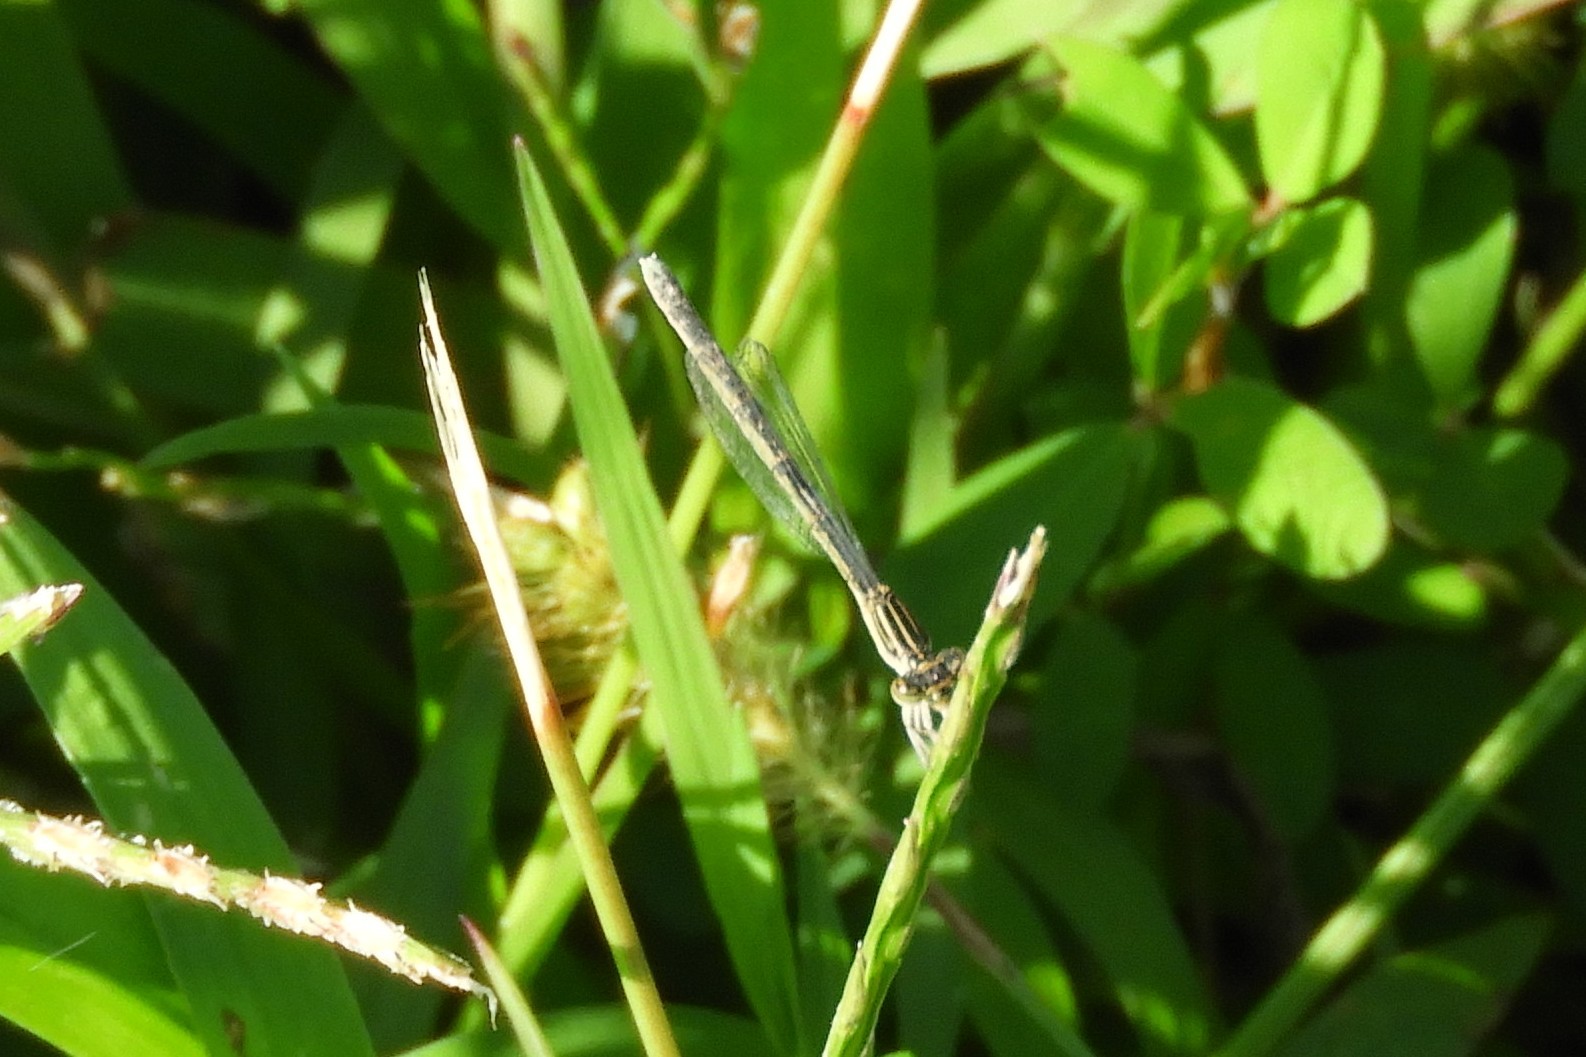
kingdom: Animalia
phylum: Arthropoda
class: Insecta
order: Odonata
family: Coenagrionidae
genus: Enallagma
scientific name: Enallagma basidens
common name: Double-striped bluet
